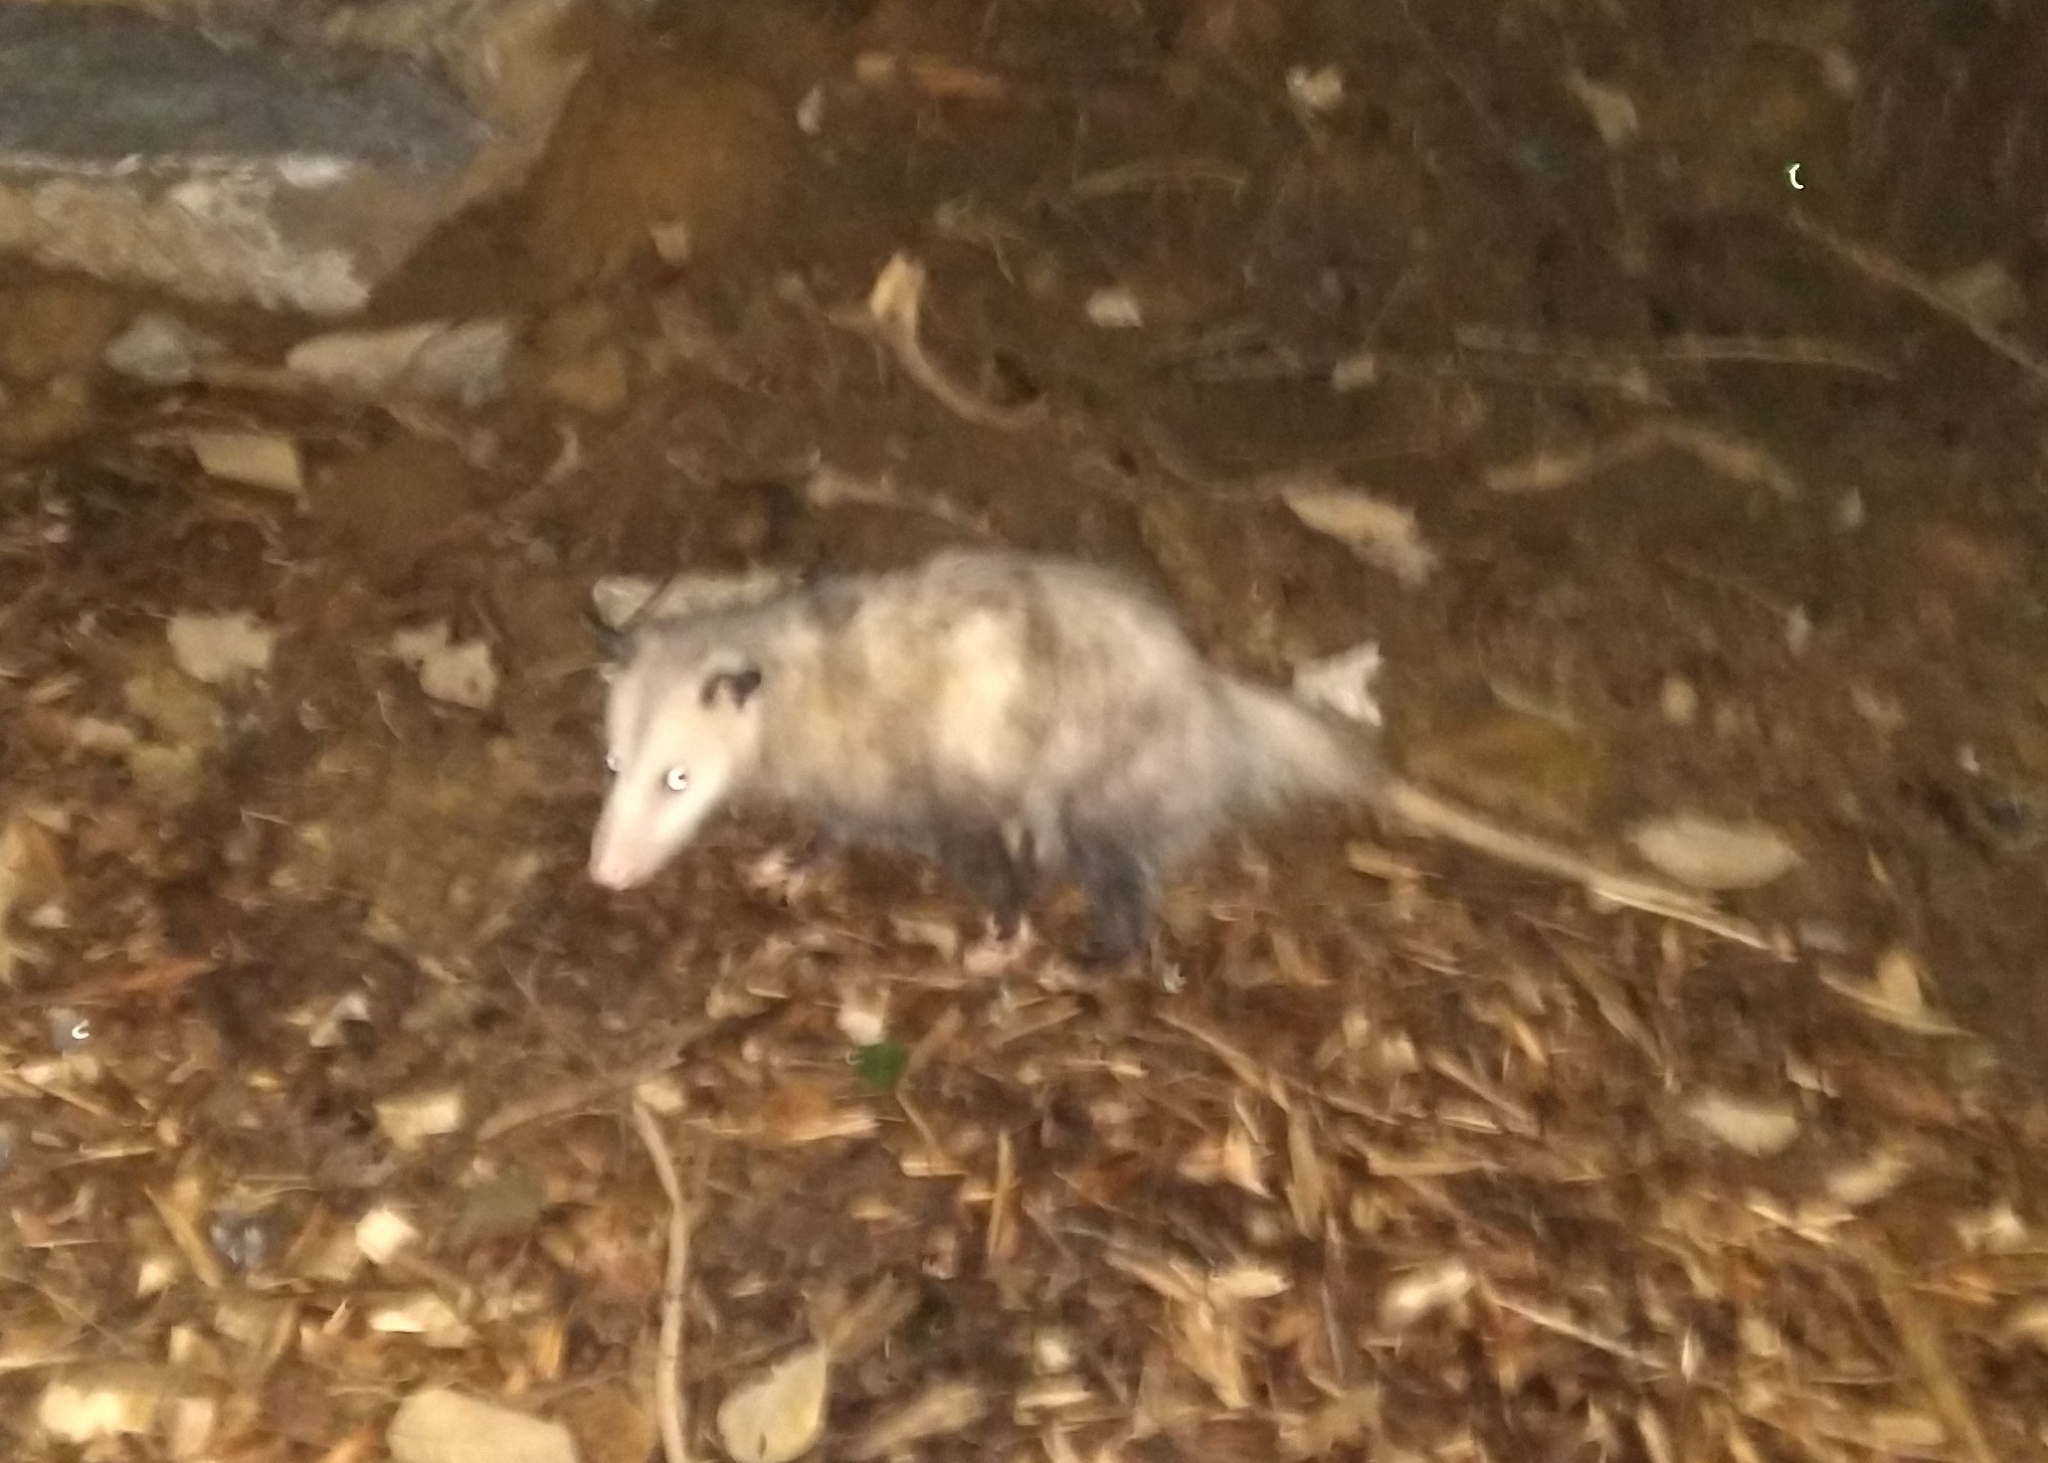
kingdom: Animalia
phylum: Chordata
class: Mammalia
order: Didelphimorphia
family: Didelphidae
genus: Didelphis
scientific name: Didelphis virginiana
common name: Virginia opossum
